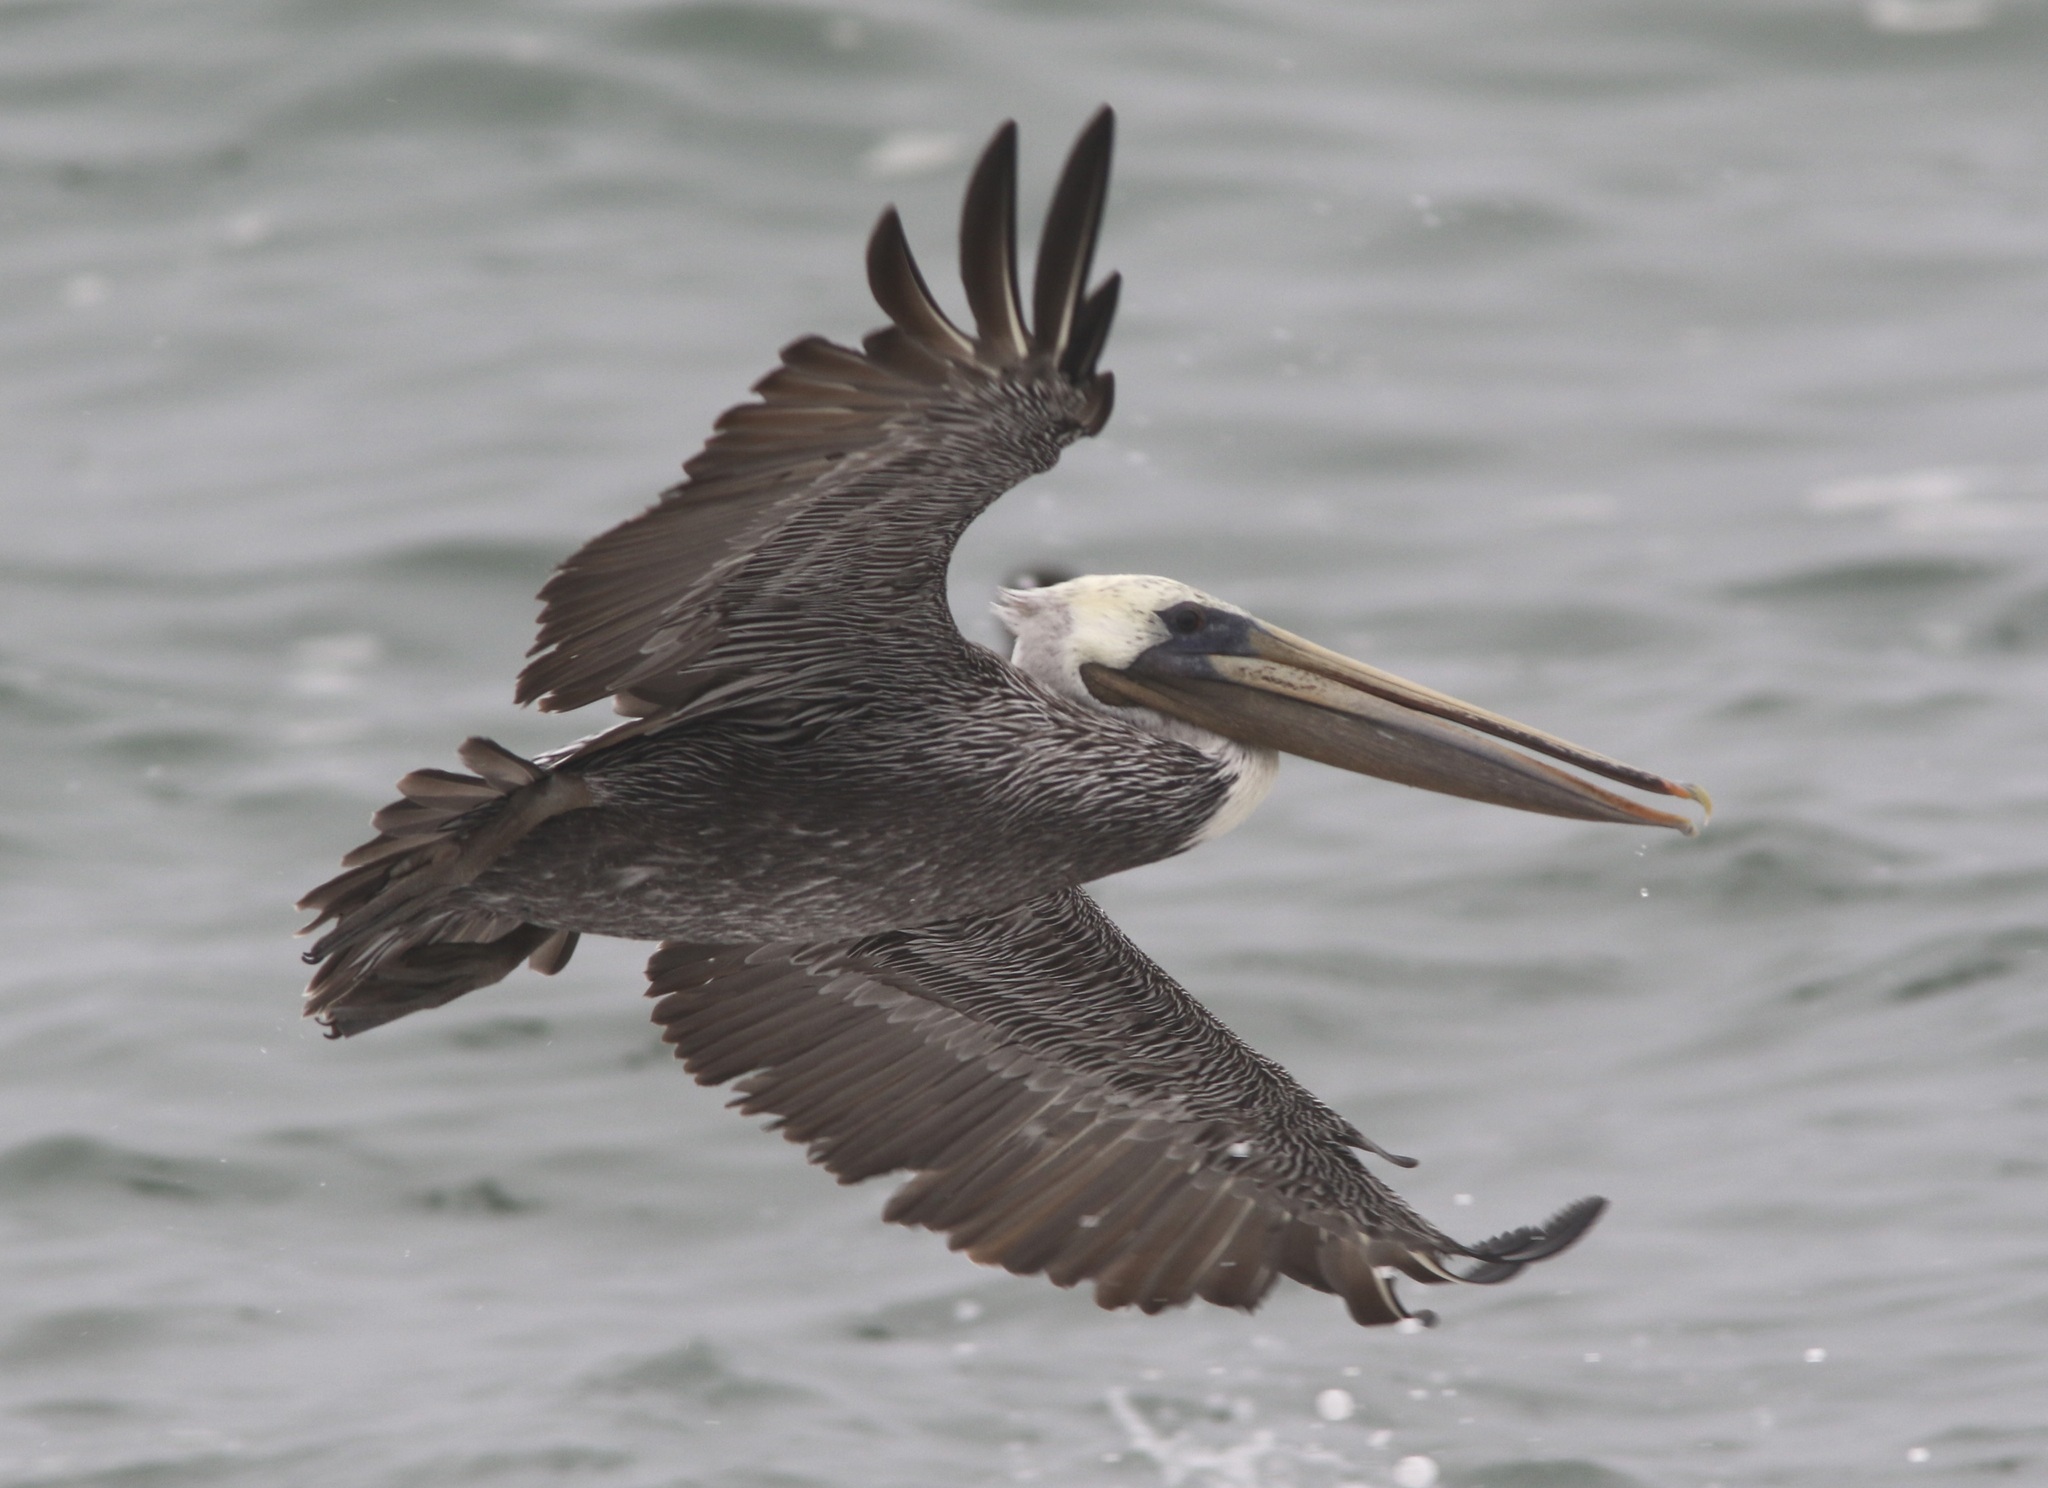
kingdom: Animalia
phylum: Chordata
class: Aves
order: Pelecaniformes
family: Pelecanidae
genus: Pelecanus
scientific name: Pelecanus occidentalis
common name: Brown pelican
